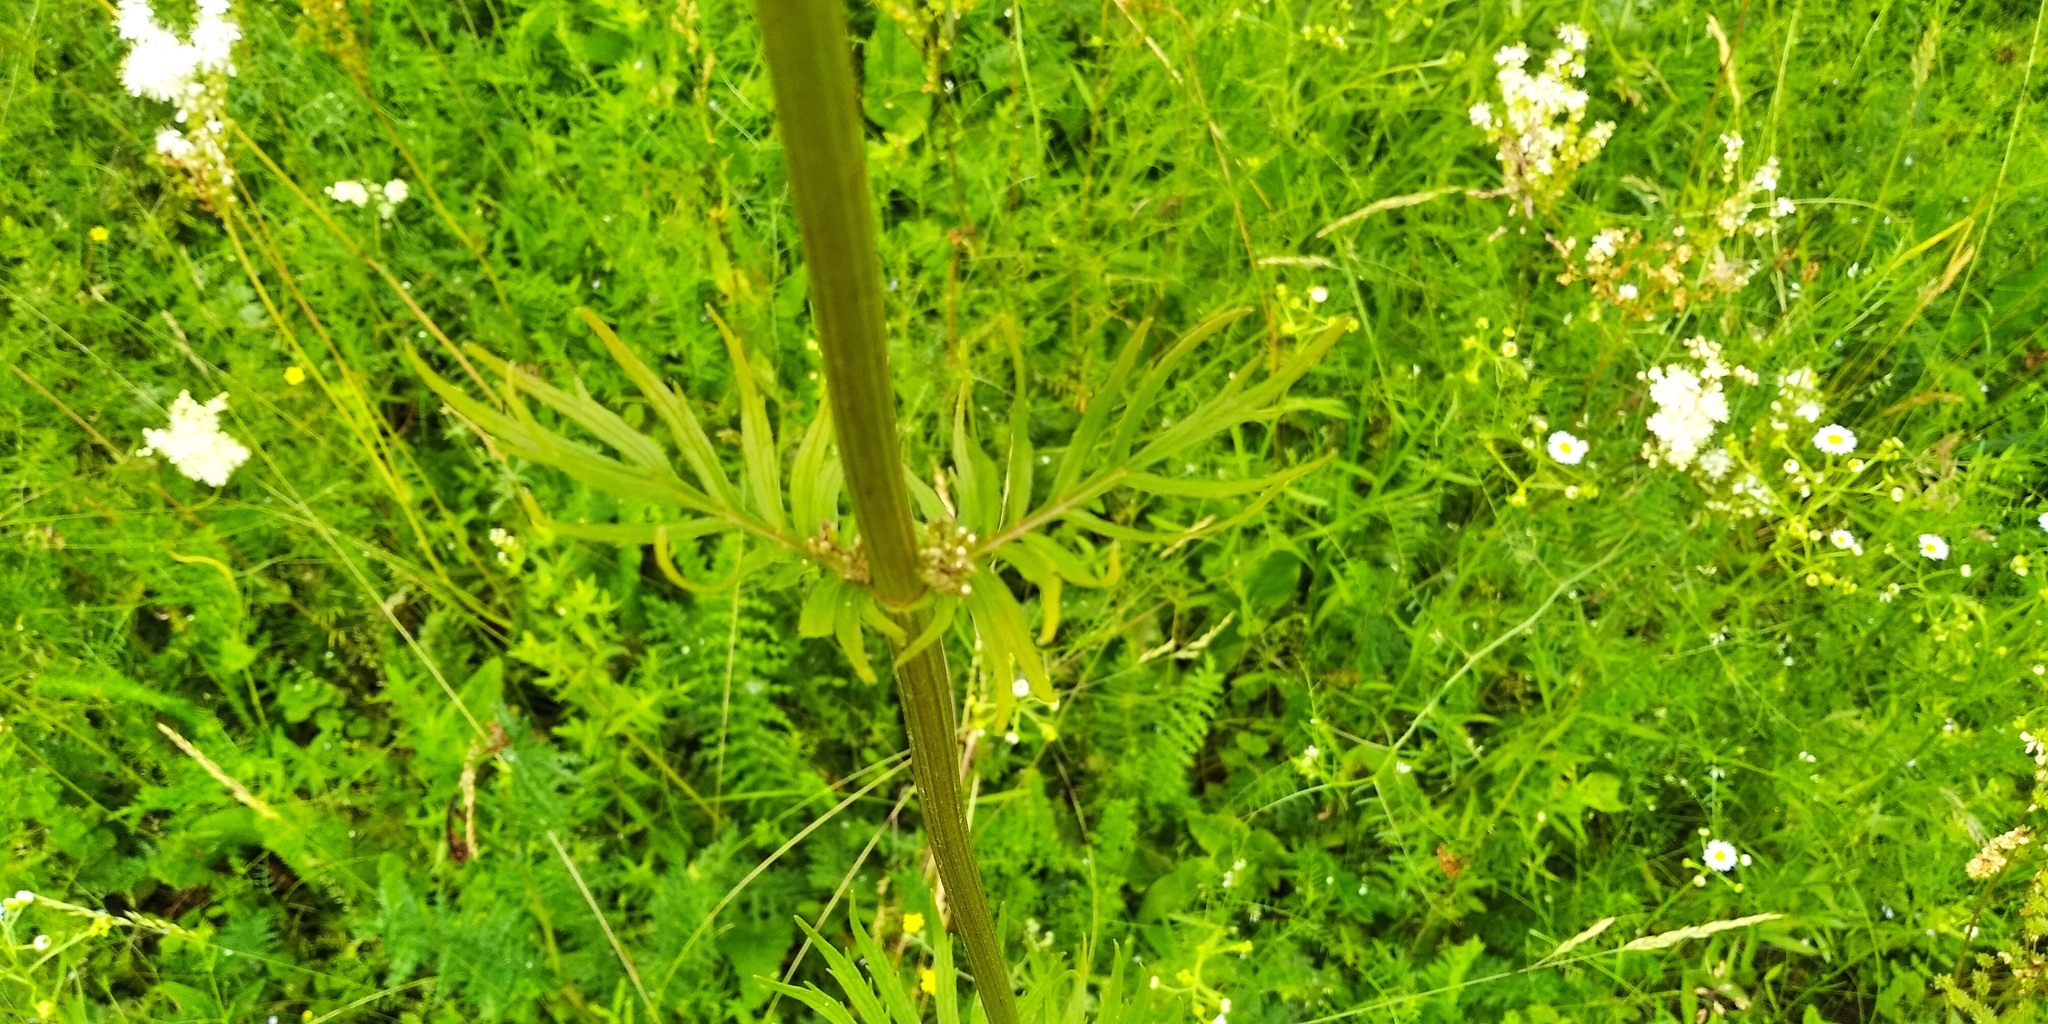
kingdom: Plantae
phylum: Tracheophyta
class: Magnoliopsida
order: Dipsacales
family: Caprifoliaceae
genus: Valeriana
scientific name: Valeriana officinalis
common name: Common valerian
